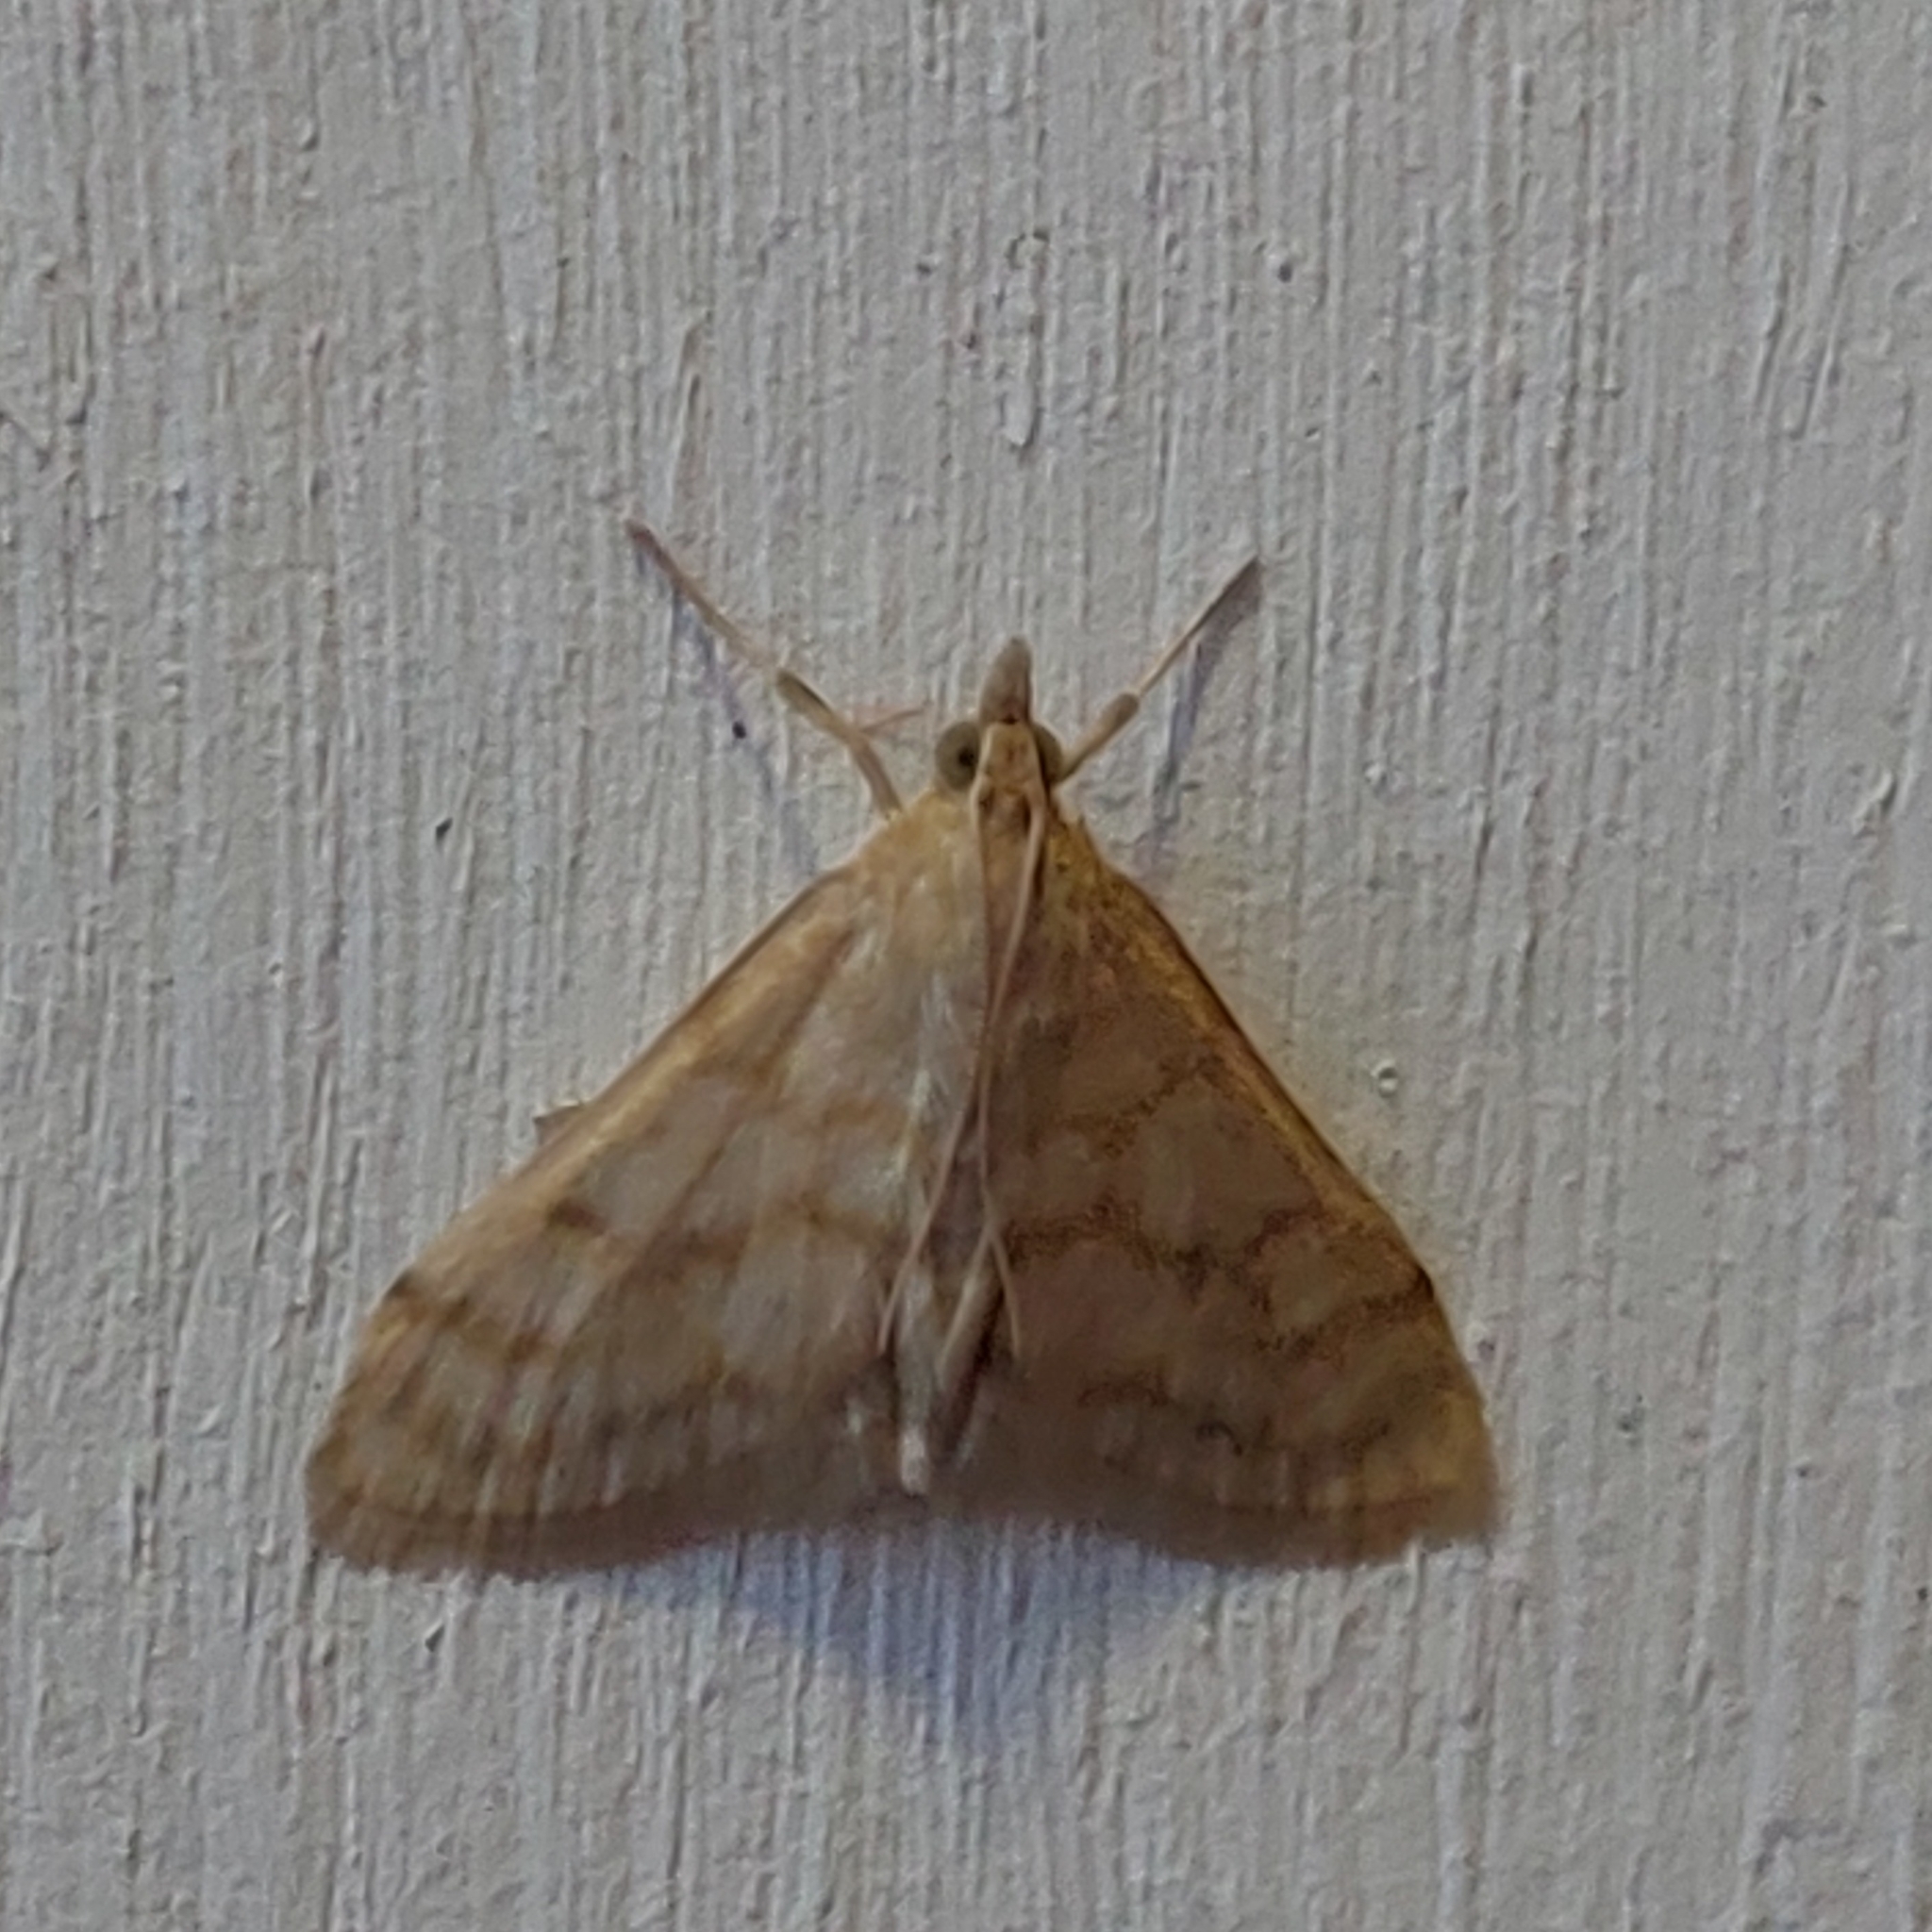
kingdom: Animalia
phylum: Arthropoda
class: Insecta
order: Lepidoptera
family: Crambidae
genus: Paracorsia
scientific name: Paracorsia repandalis
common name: Mullein moth
